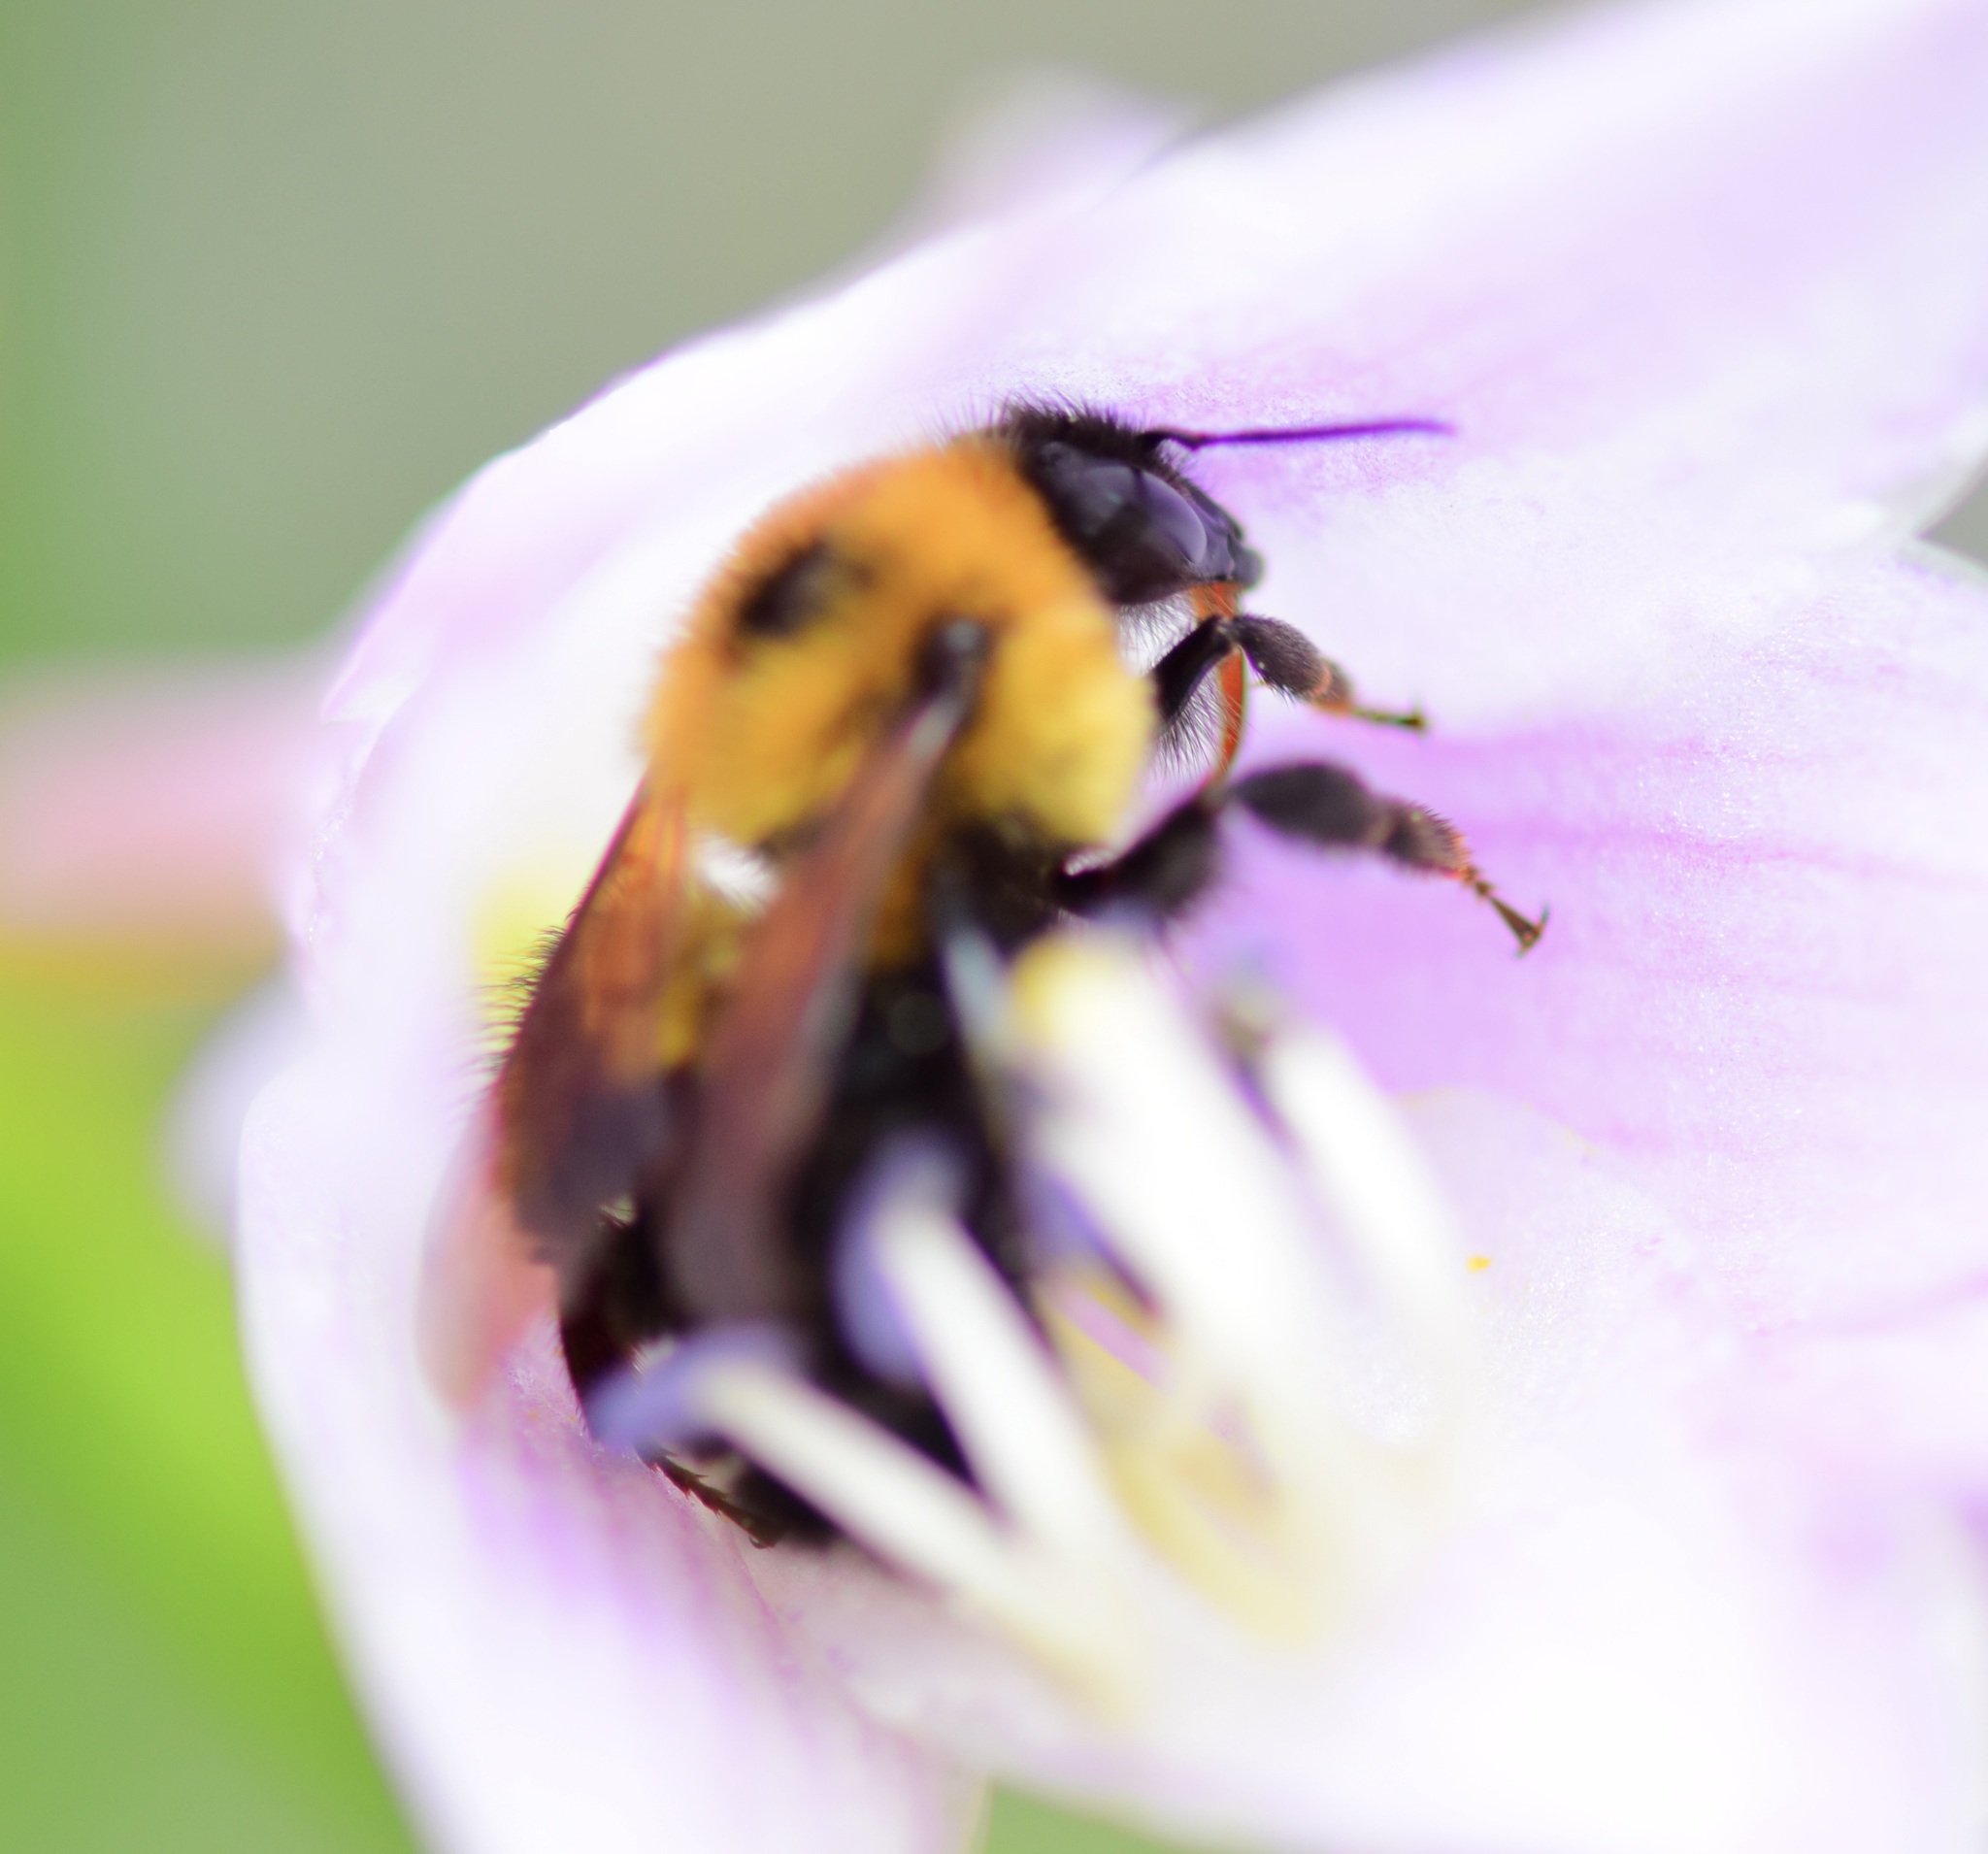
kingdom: Animalia
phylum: Arthropoda
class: Insecta
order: Hymenoptera
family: Apidae
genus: Bombus
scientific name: Bombus bimaculatus
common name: Two-spotted bumble bee
